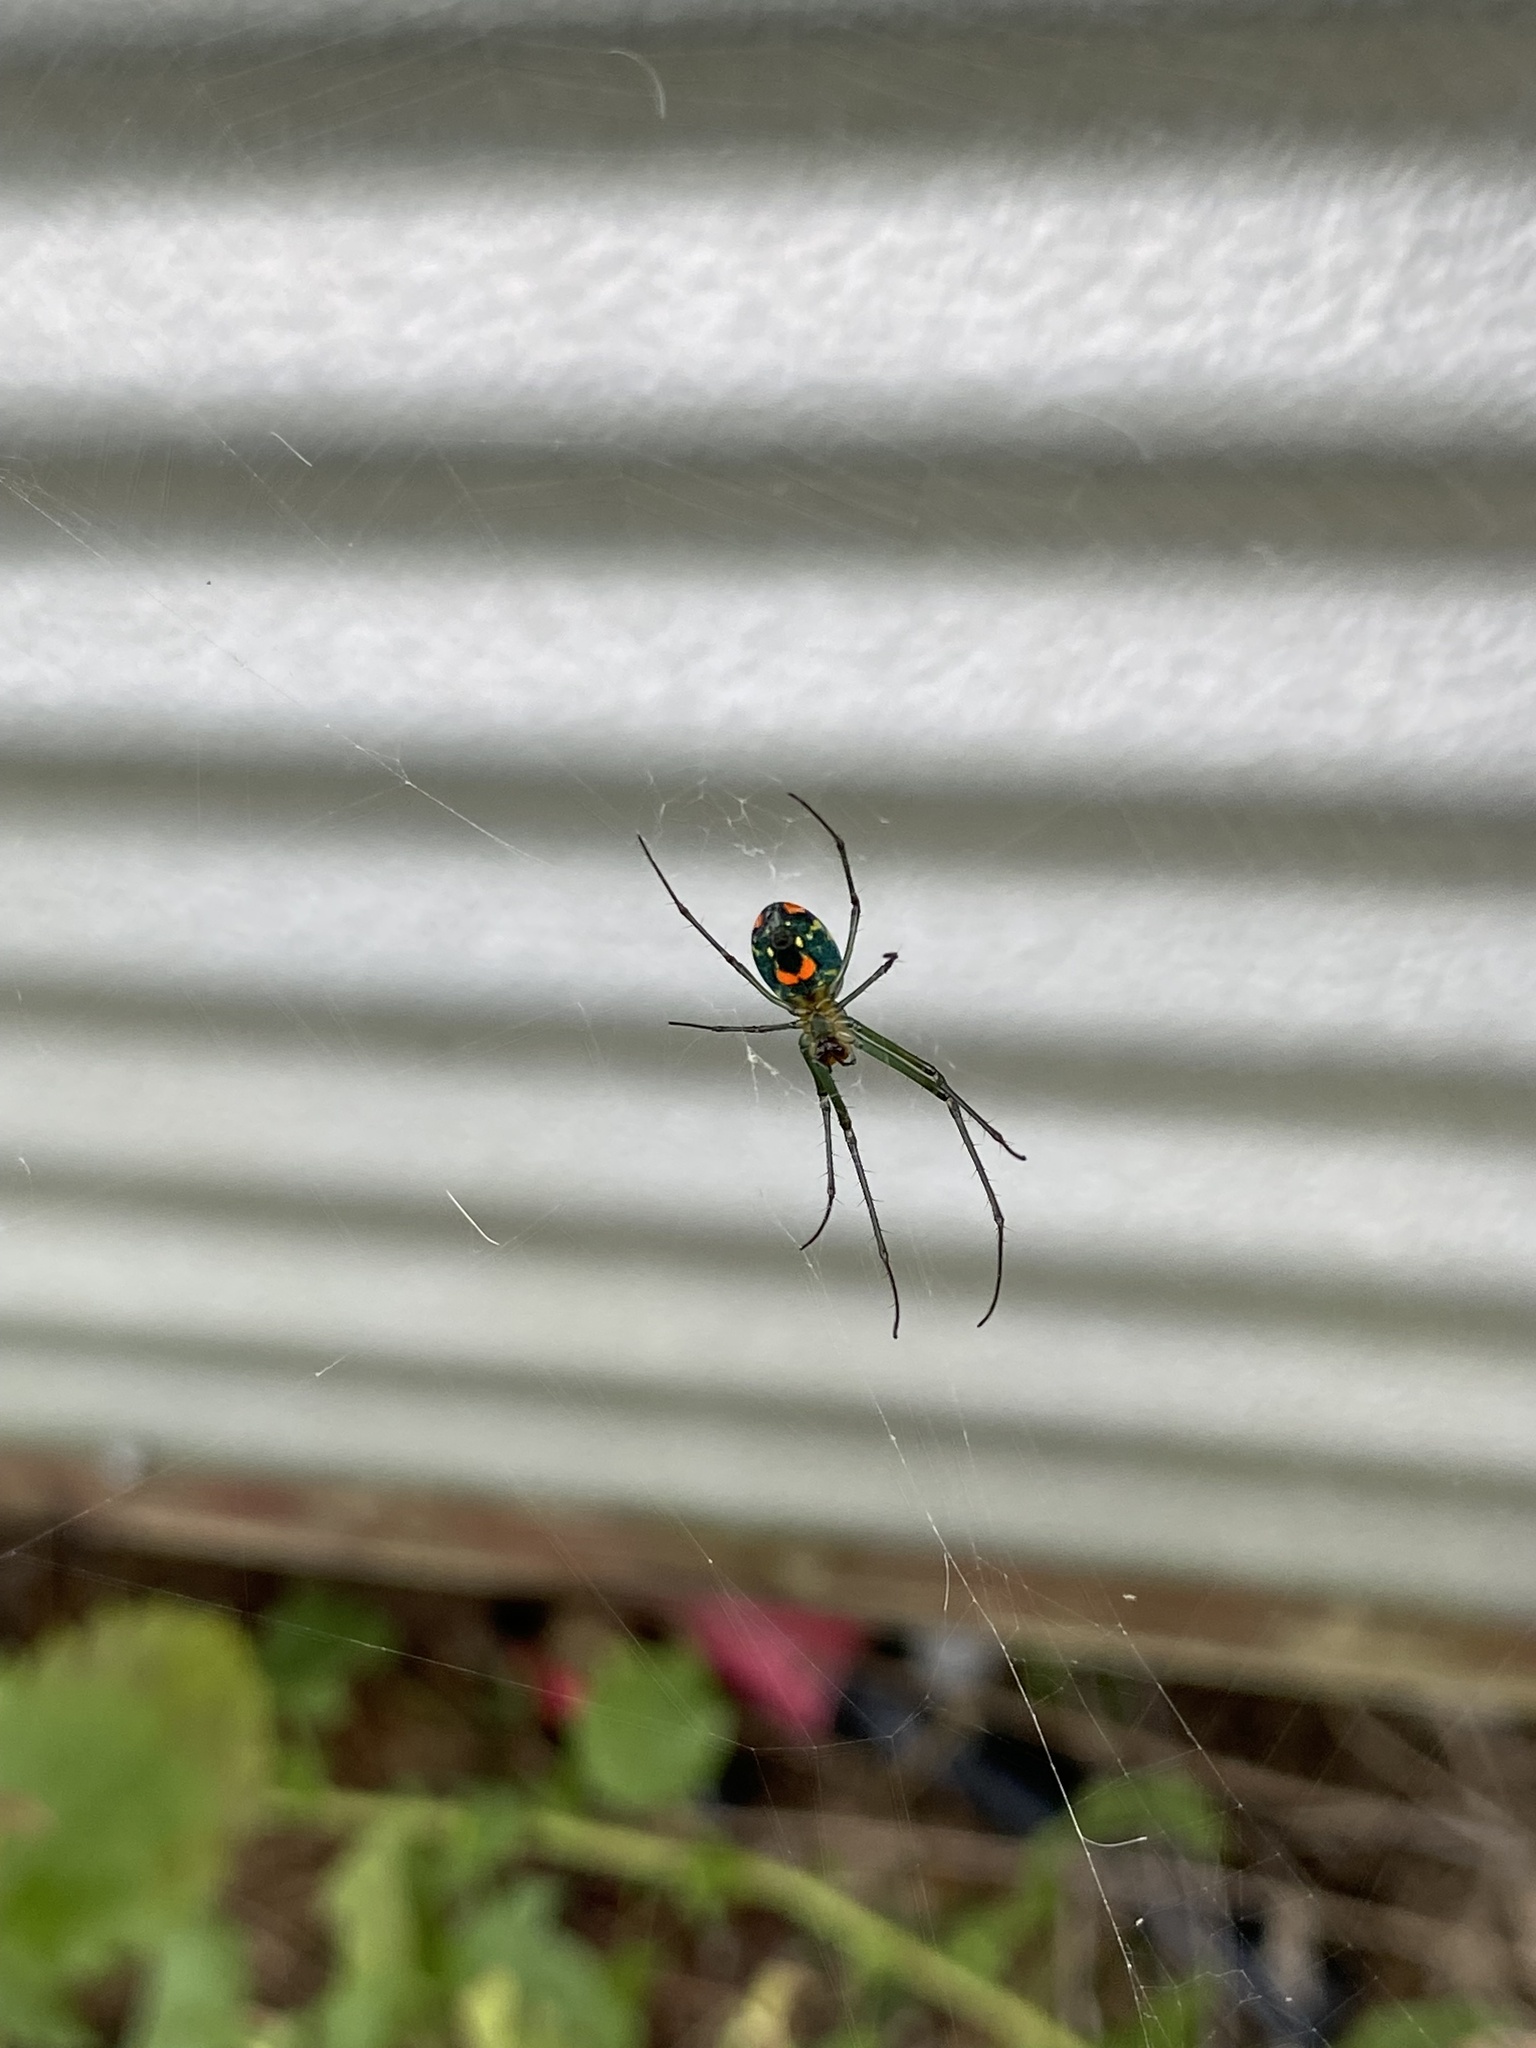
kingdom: Animalia
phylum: Arthropoda
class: Arachnida
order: Araneae
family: Tetragnathidae
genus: Leucauge
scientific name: Leucauge argyrobapta
